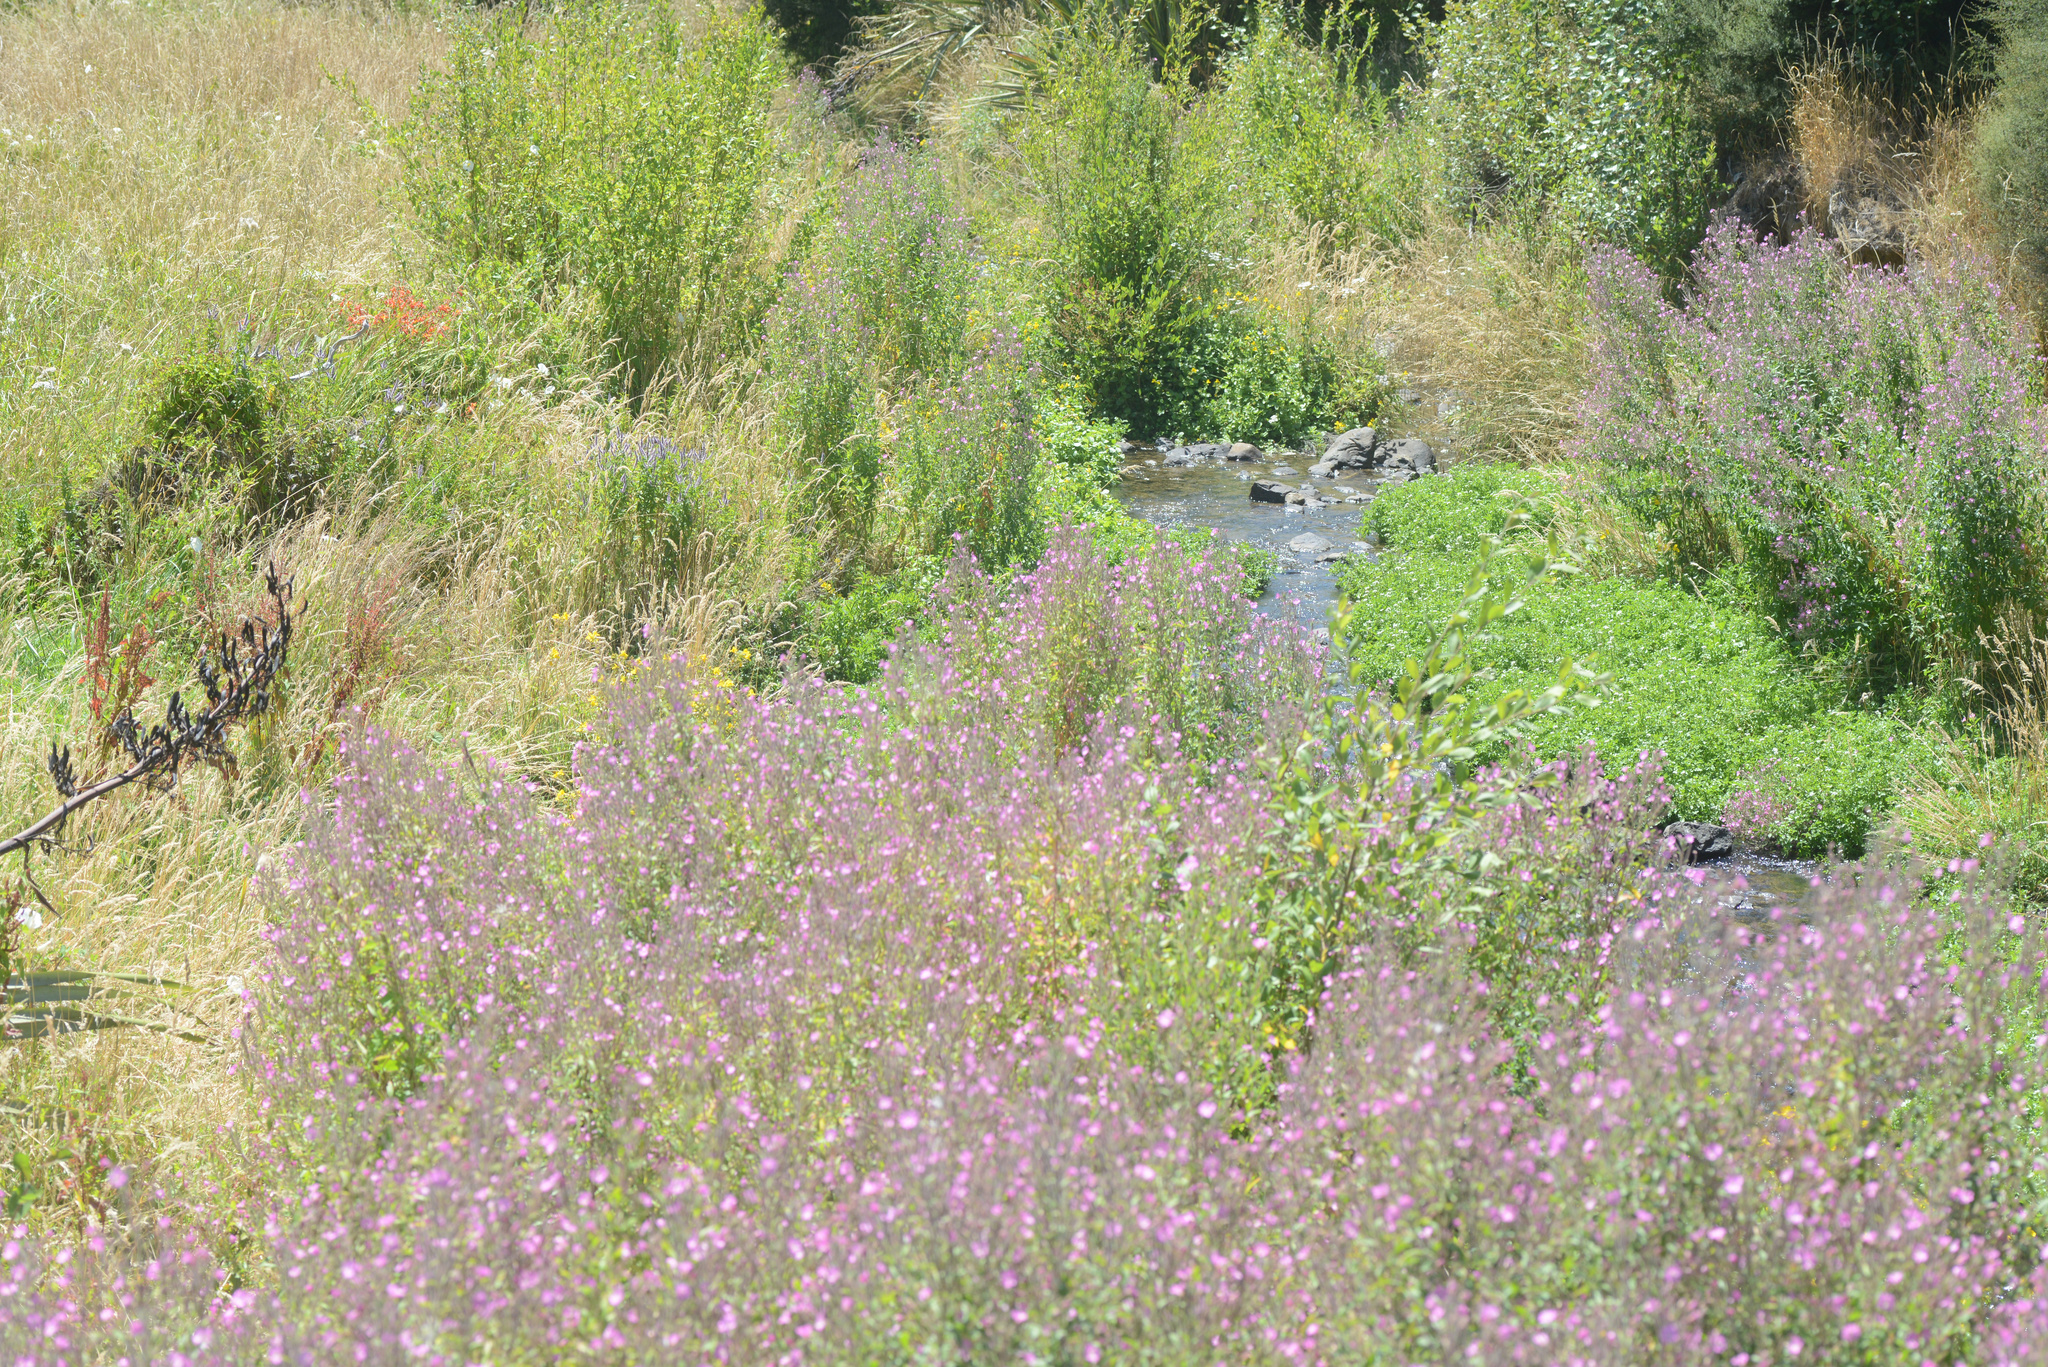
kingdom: Plantae
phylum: Tracheophyta
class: Magnoliopsida
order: Myrtales
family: Onagraceae
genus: Epilobium
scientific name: Epilobium hirsutum
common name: Great willowherb
